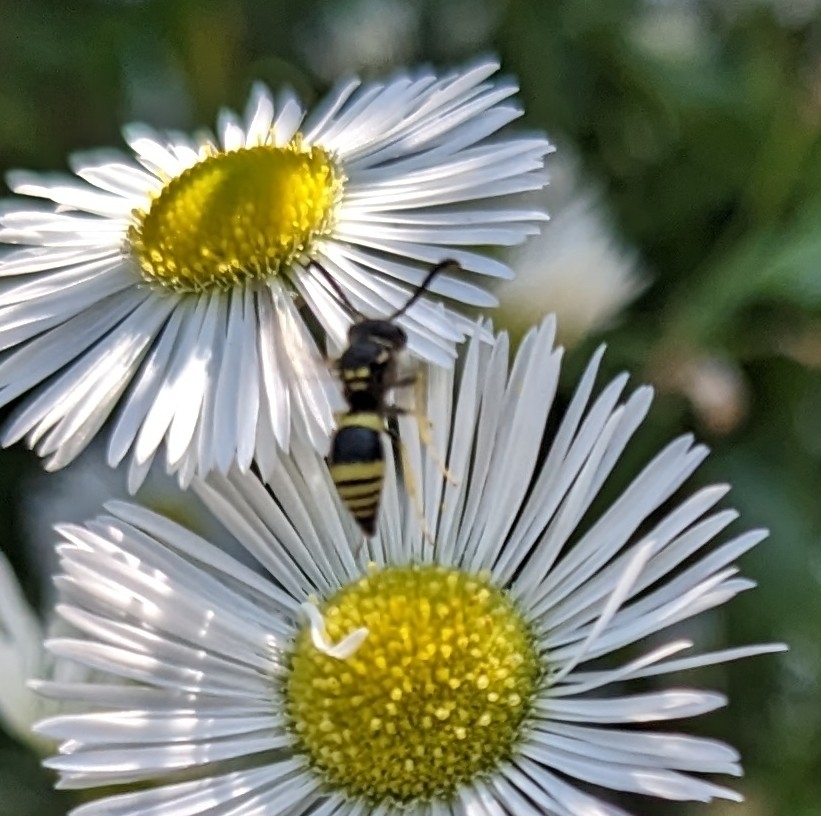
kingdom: Animalia
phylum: Arthropoda
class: Insecta
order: Hymenoptera
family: Vespidae
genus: Ancistrocerus
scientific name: Ancistrocerus gazella
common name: European tube wasp
